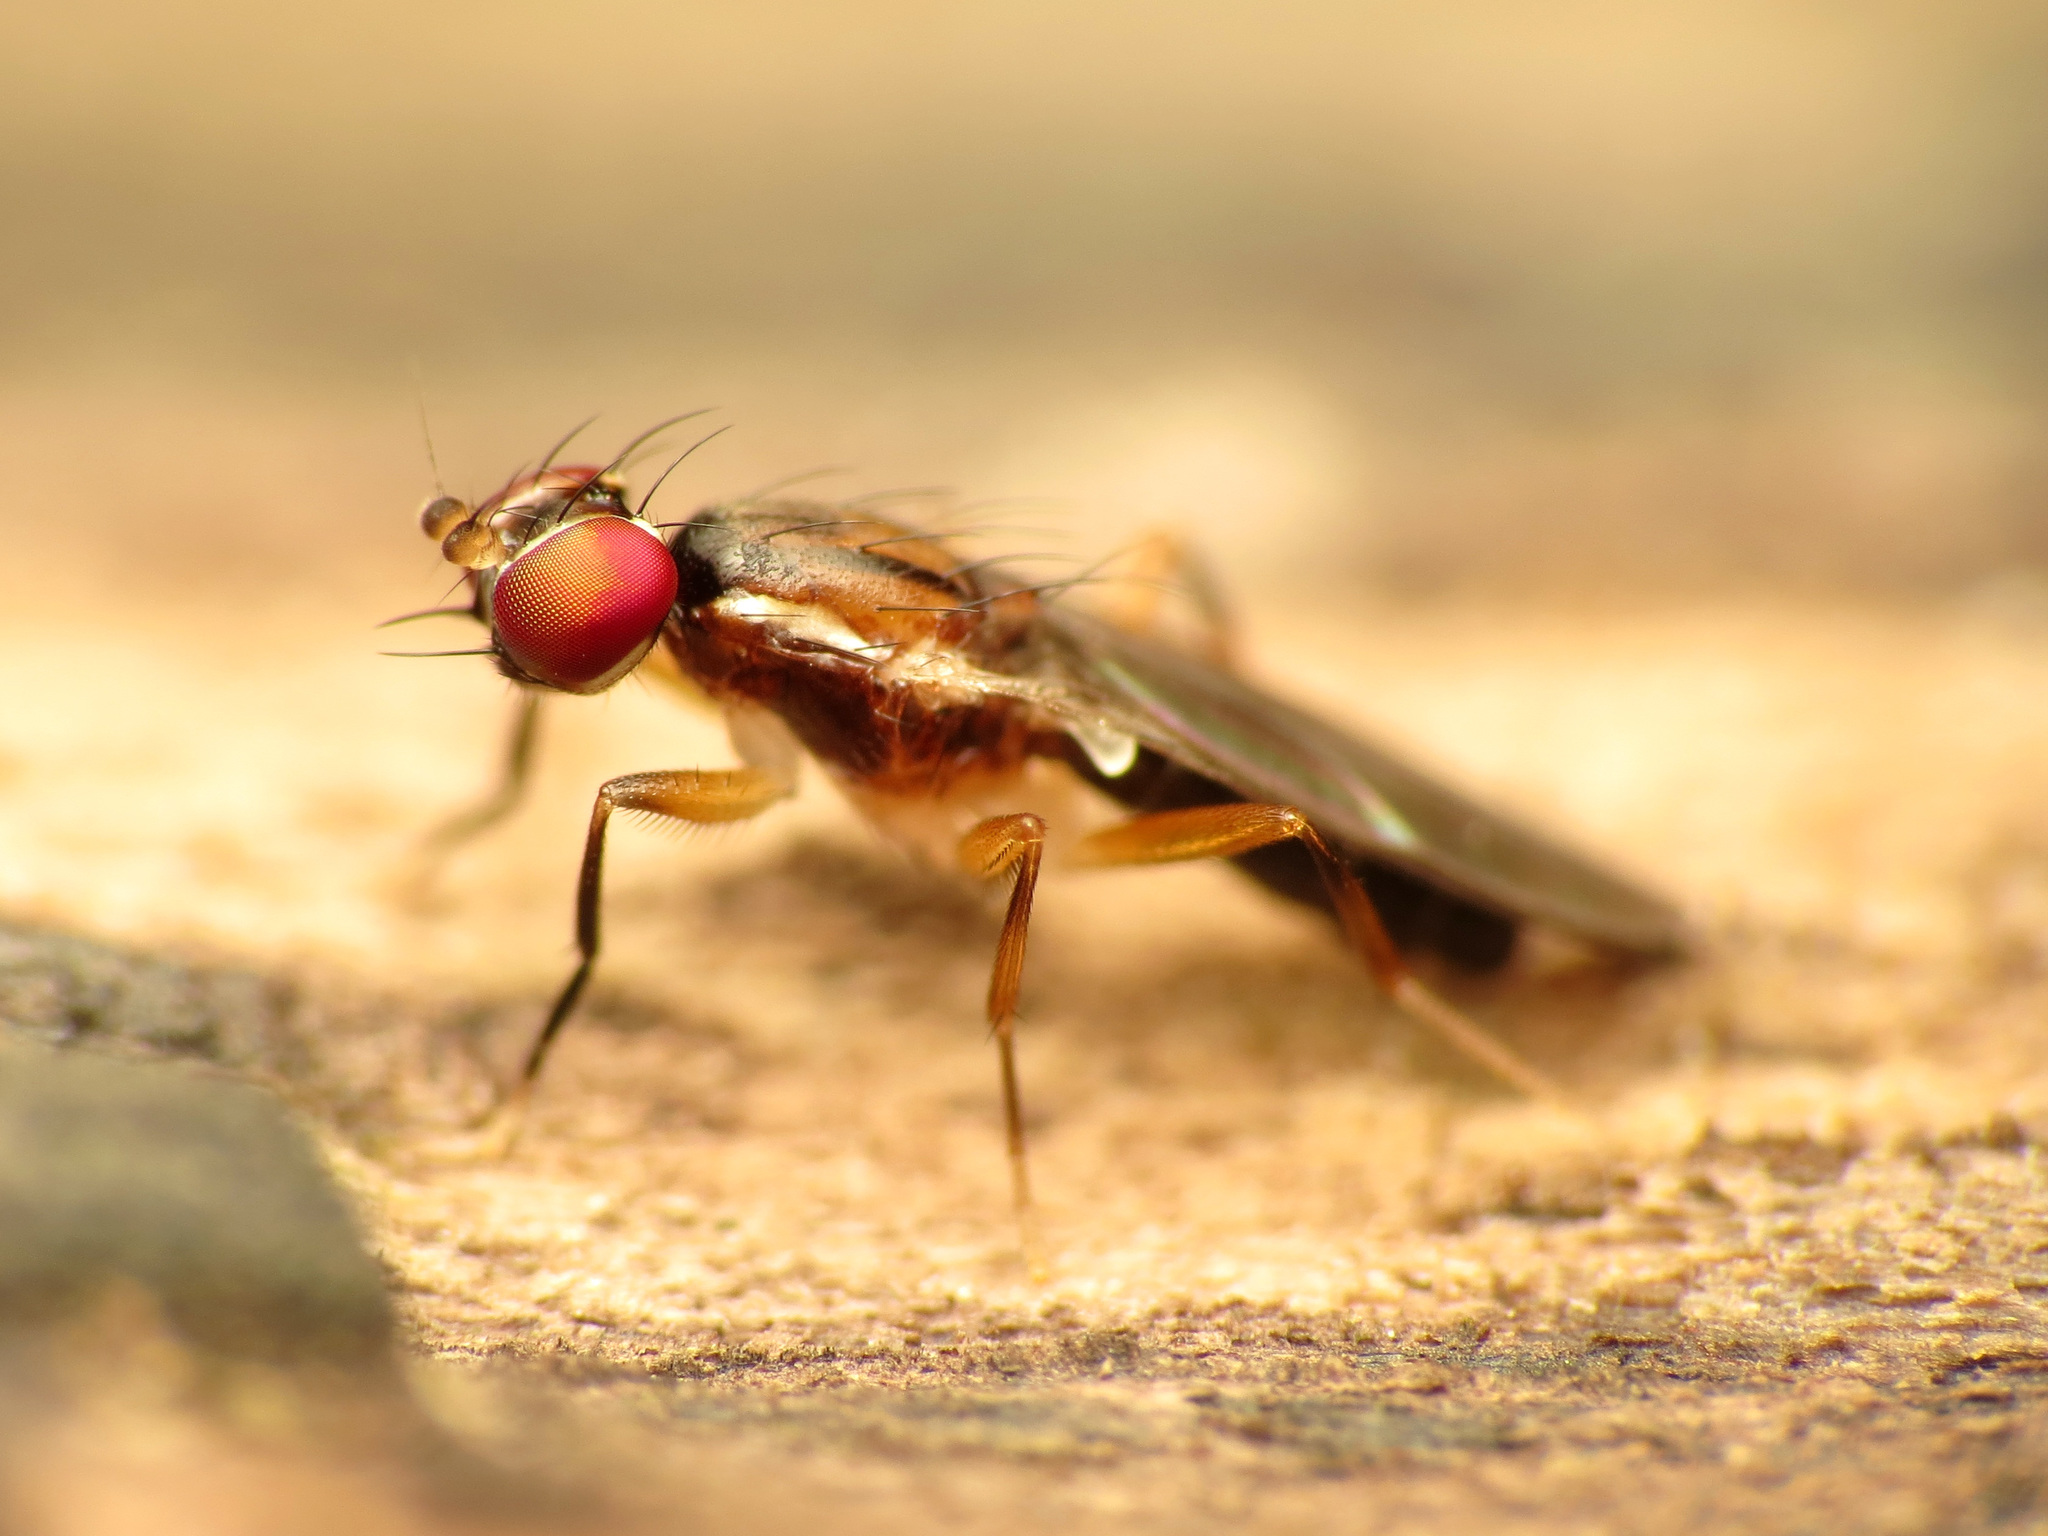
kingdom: Animalia
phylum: Arthropoda
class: Insecta
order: Diptera
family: Clusiidae
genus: Clusiodes
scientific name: Clusiodes johnsoni
